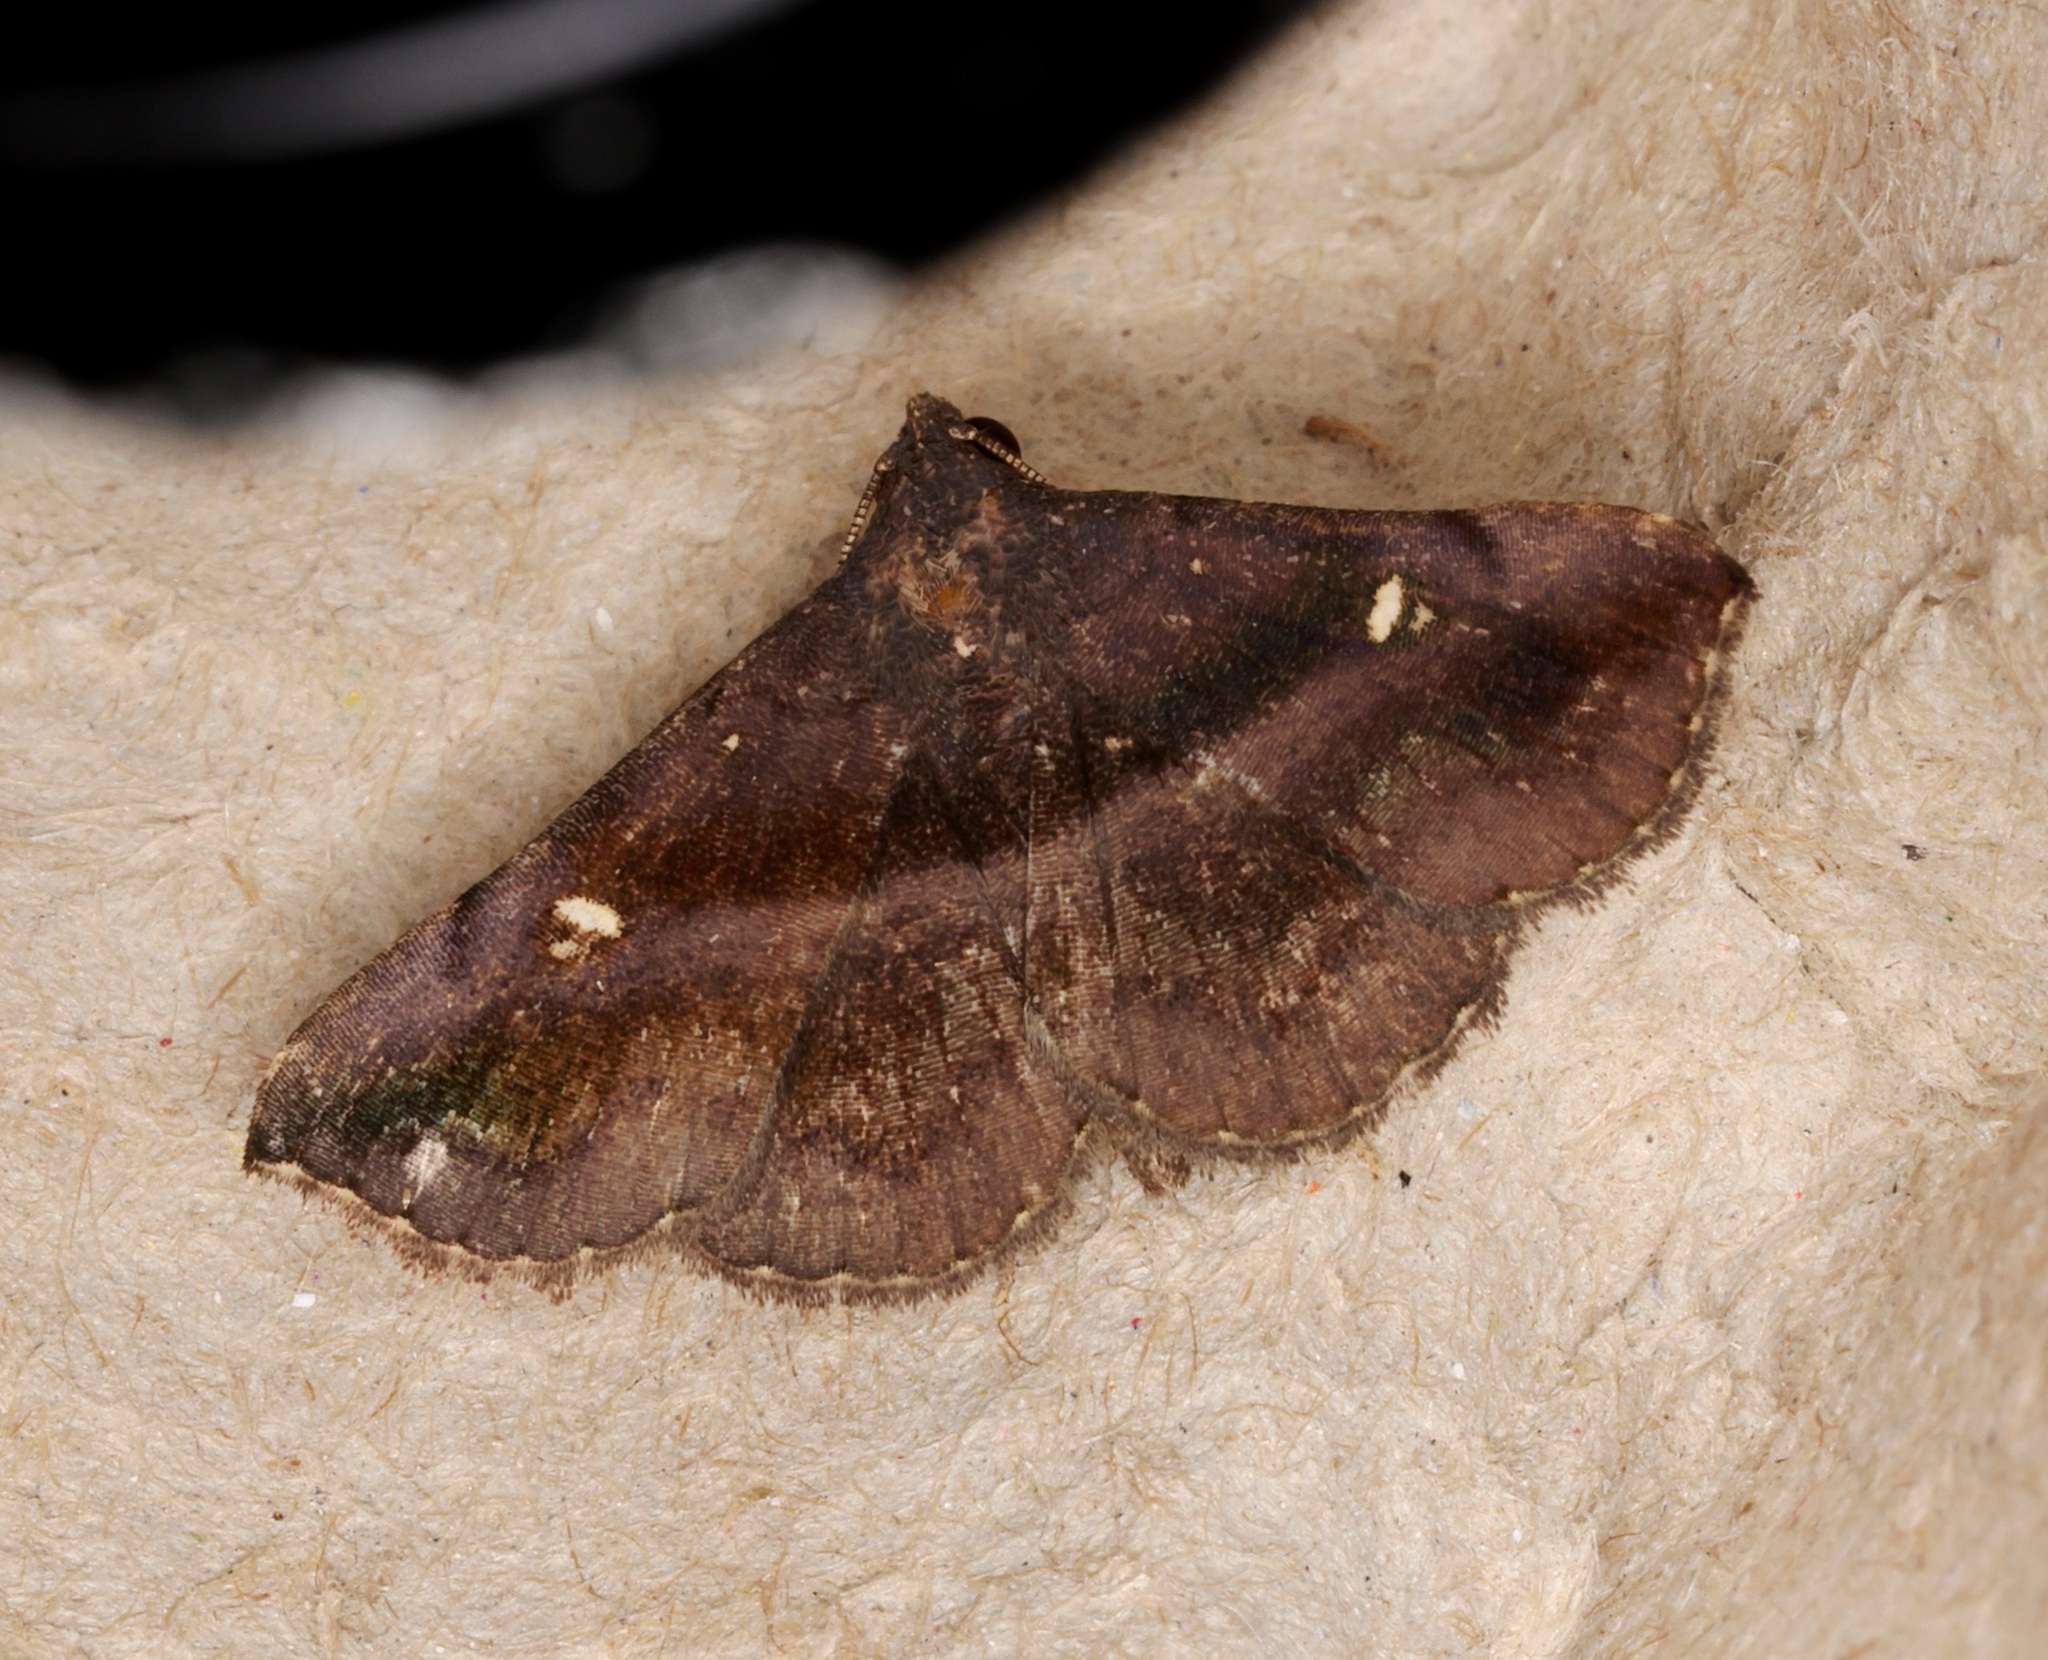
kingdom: Animalia
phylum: Arthropoda
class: Insecta
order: Lepidoptera
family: Erebidae
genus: Hadennia
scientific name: Hadennia jutalis
